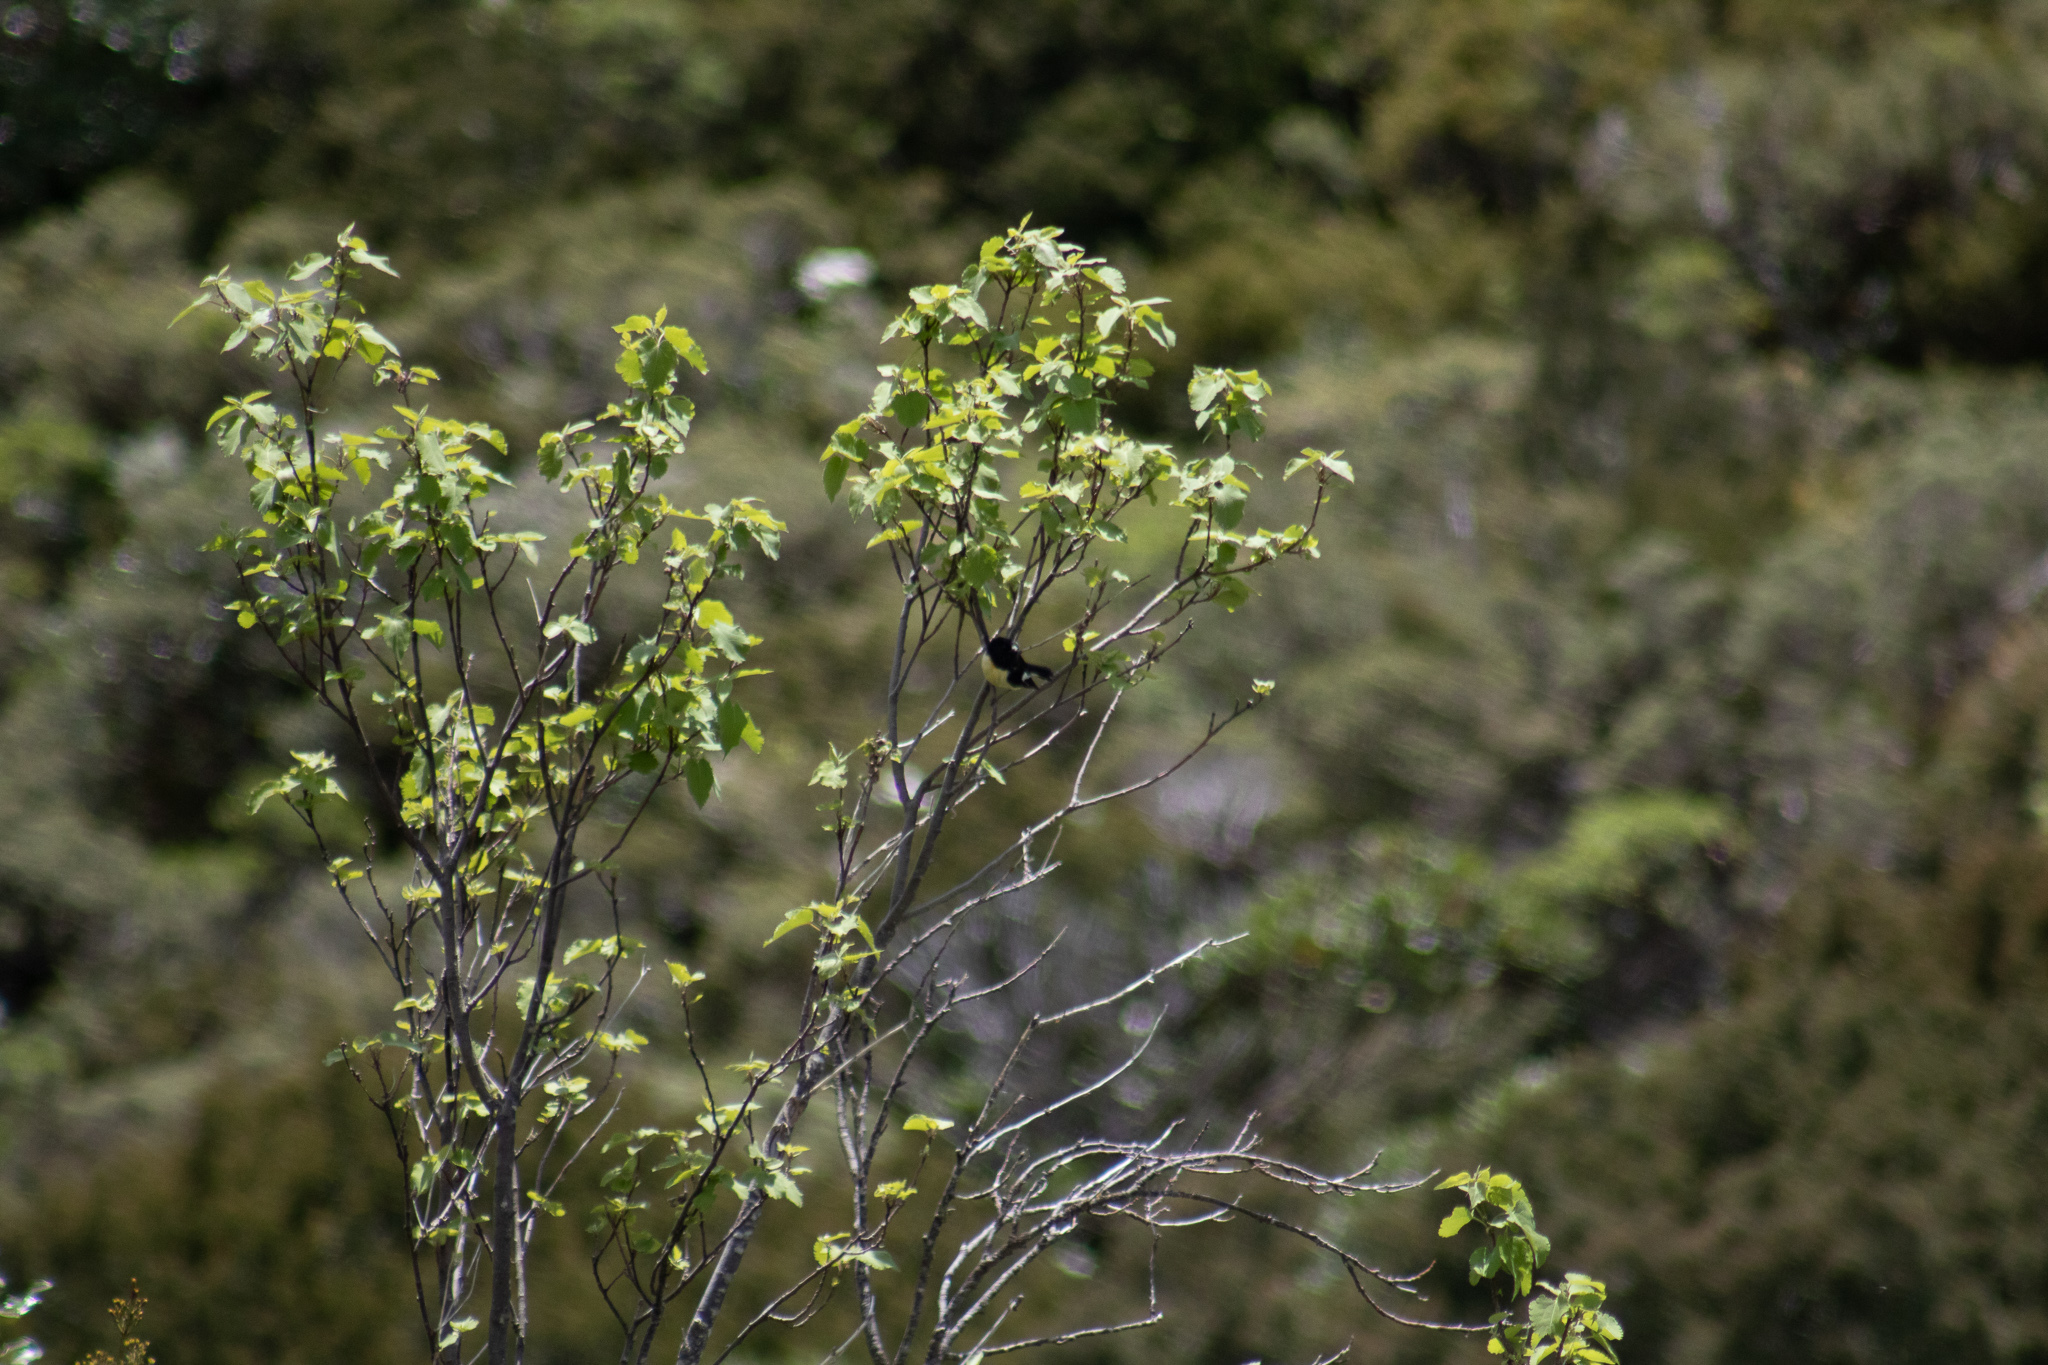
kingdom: Animalia
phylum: Chordata
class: Aves
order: Passeriformes
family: Petroicidae
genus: Petroica
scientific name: Petroica macrocephala
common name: Tomtit
